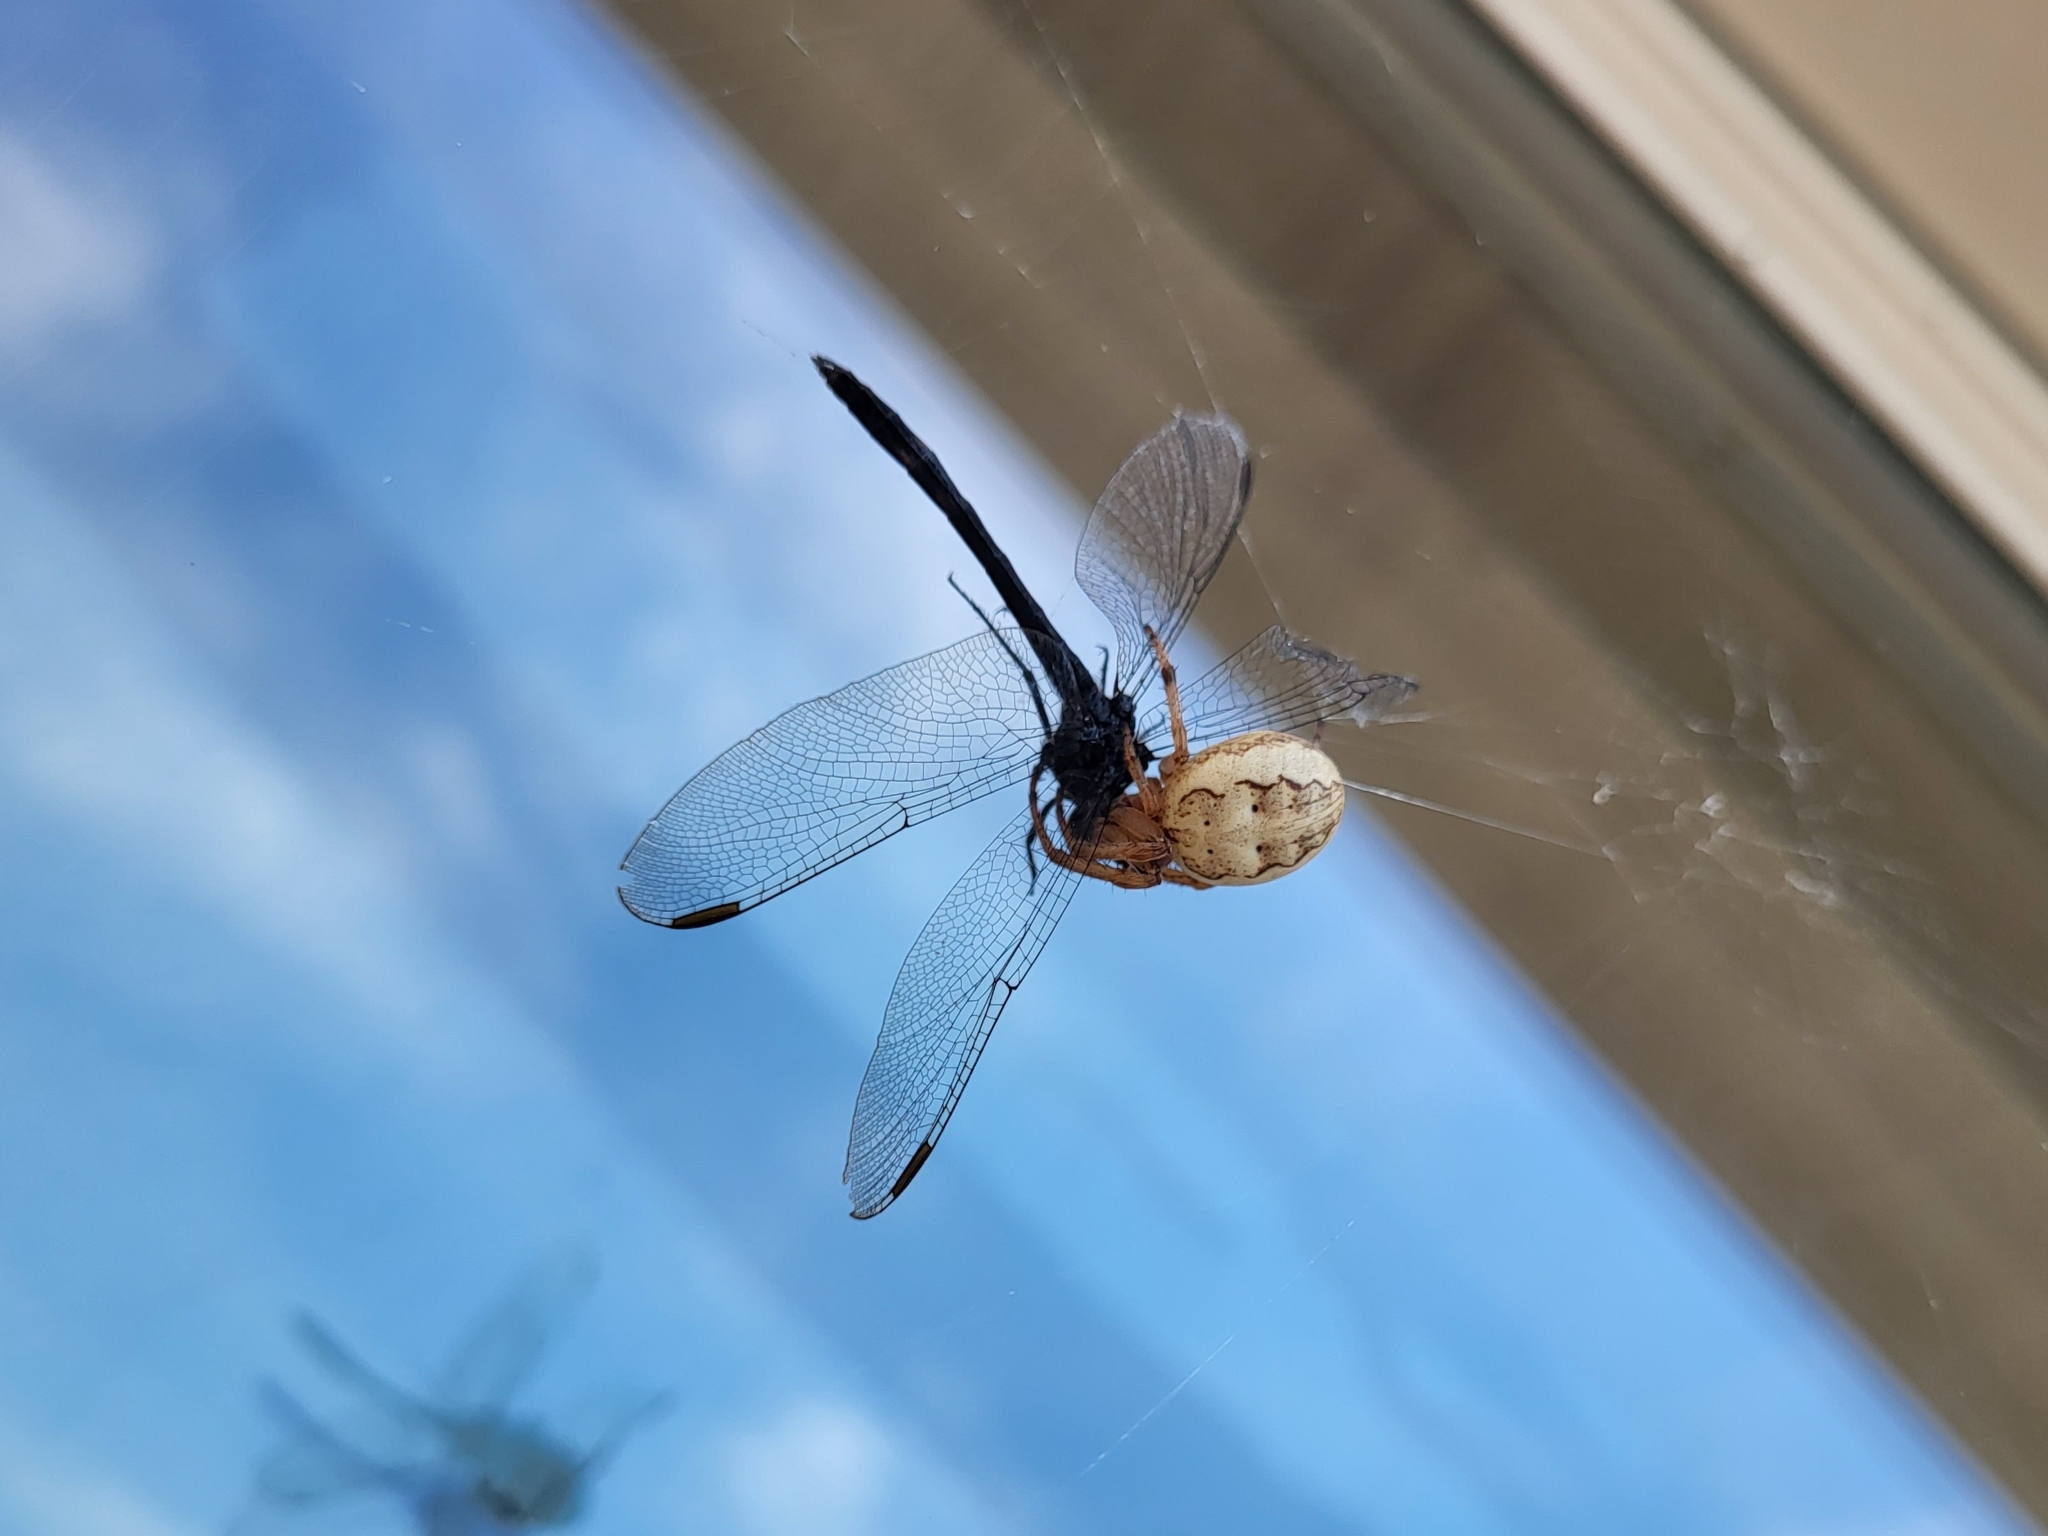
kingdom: Animalia
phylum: Arthropoda
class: Arachnida
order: Araneae
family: Araneidae
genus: Larinioides
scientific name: Larinioides cornutus
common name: Furrow orbweaver
